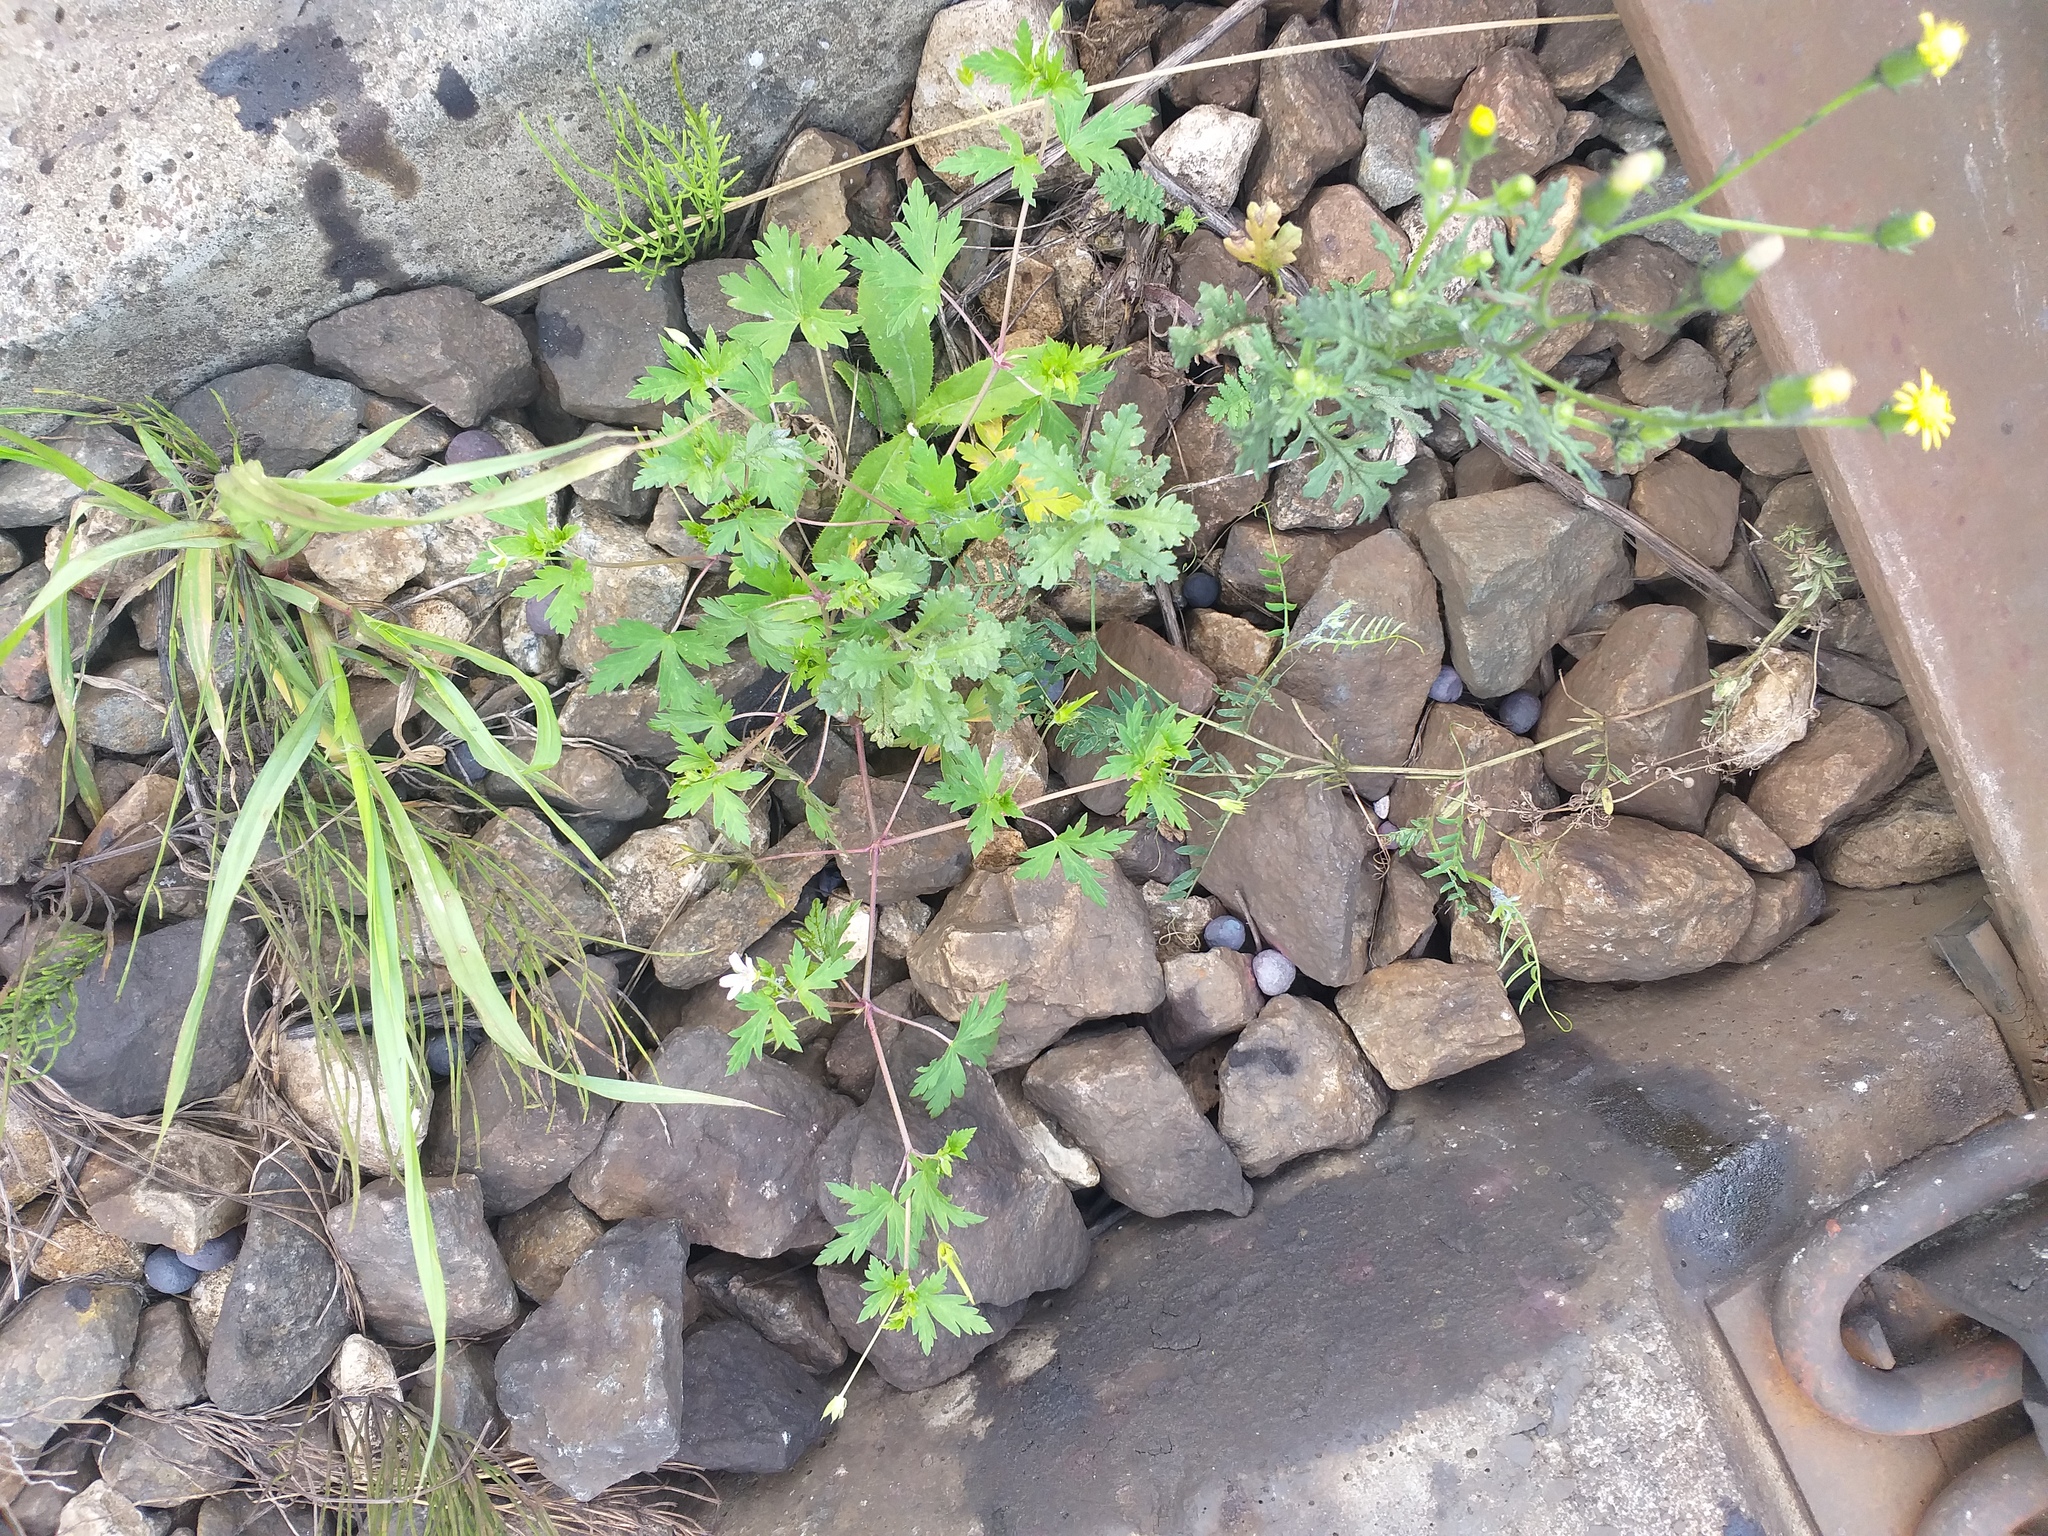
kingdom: Plantae
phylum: Tracheophyta
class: Magnoliopsida
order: Asterales
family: Asteraceae
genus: Senecio
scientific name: Senecio viscosus
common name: Sticky groundsel
